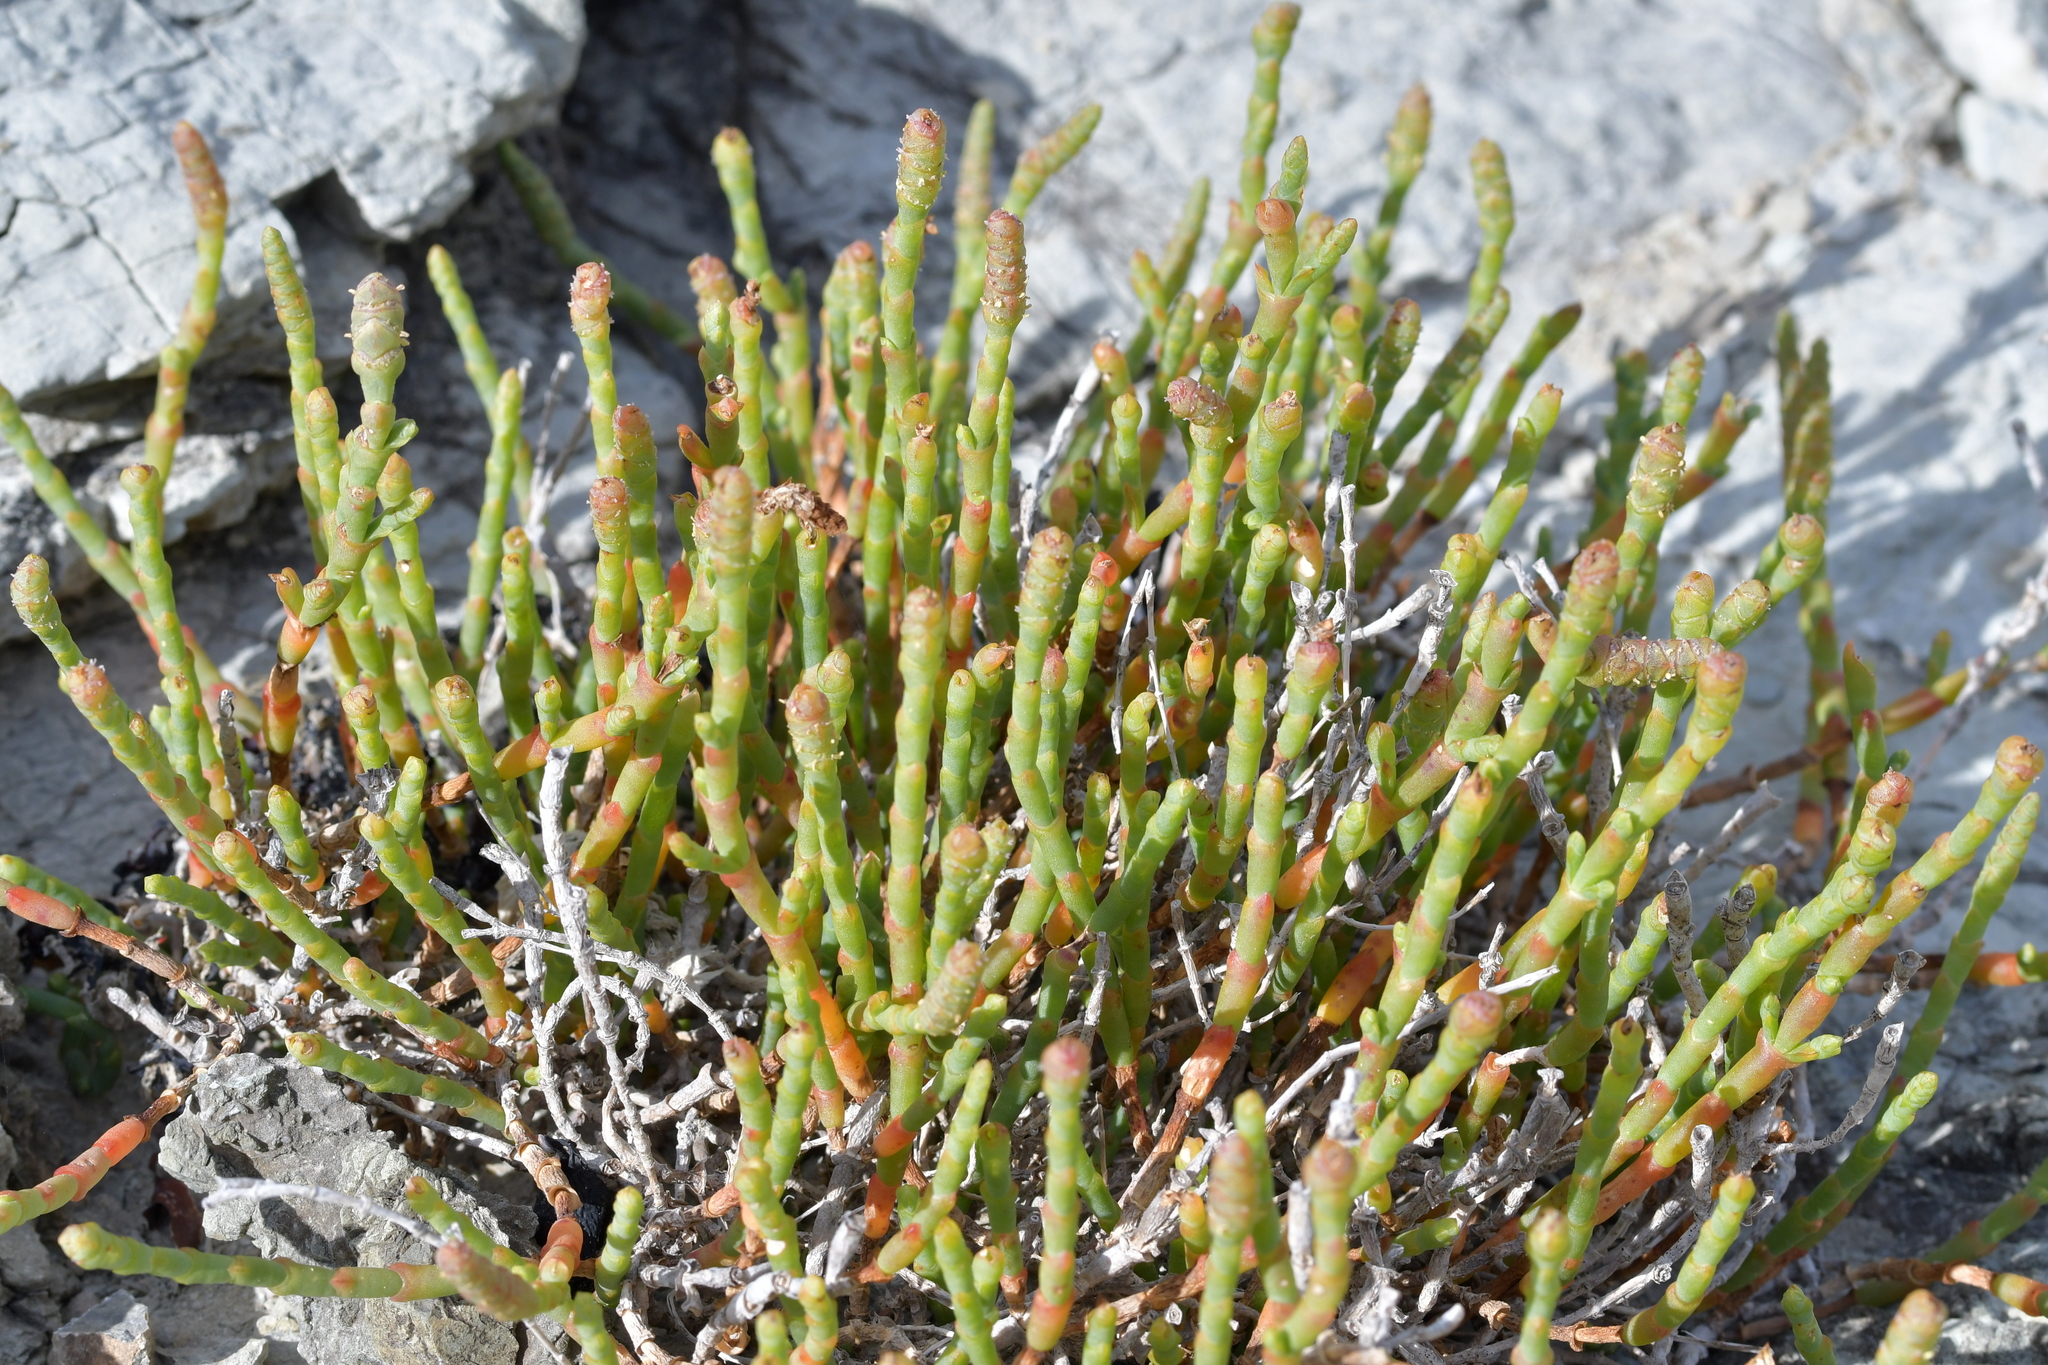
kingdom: Plantae
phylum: Tracheophyta
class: Magnoliopsida
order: Caryophyllales
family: Amaranthaceae
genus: Salicornia
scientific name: Salicornia quinqueflora
